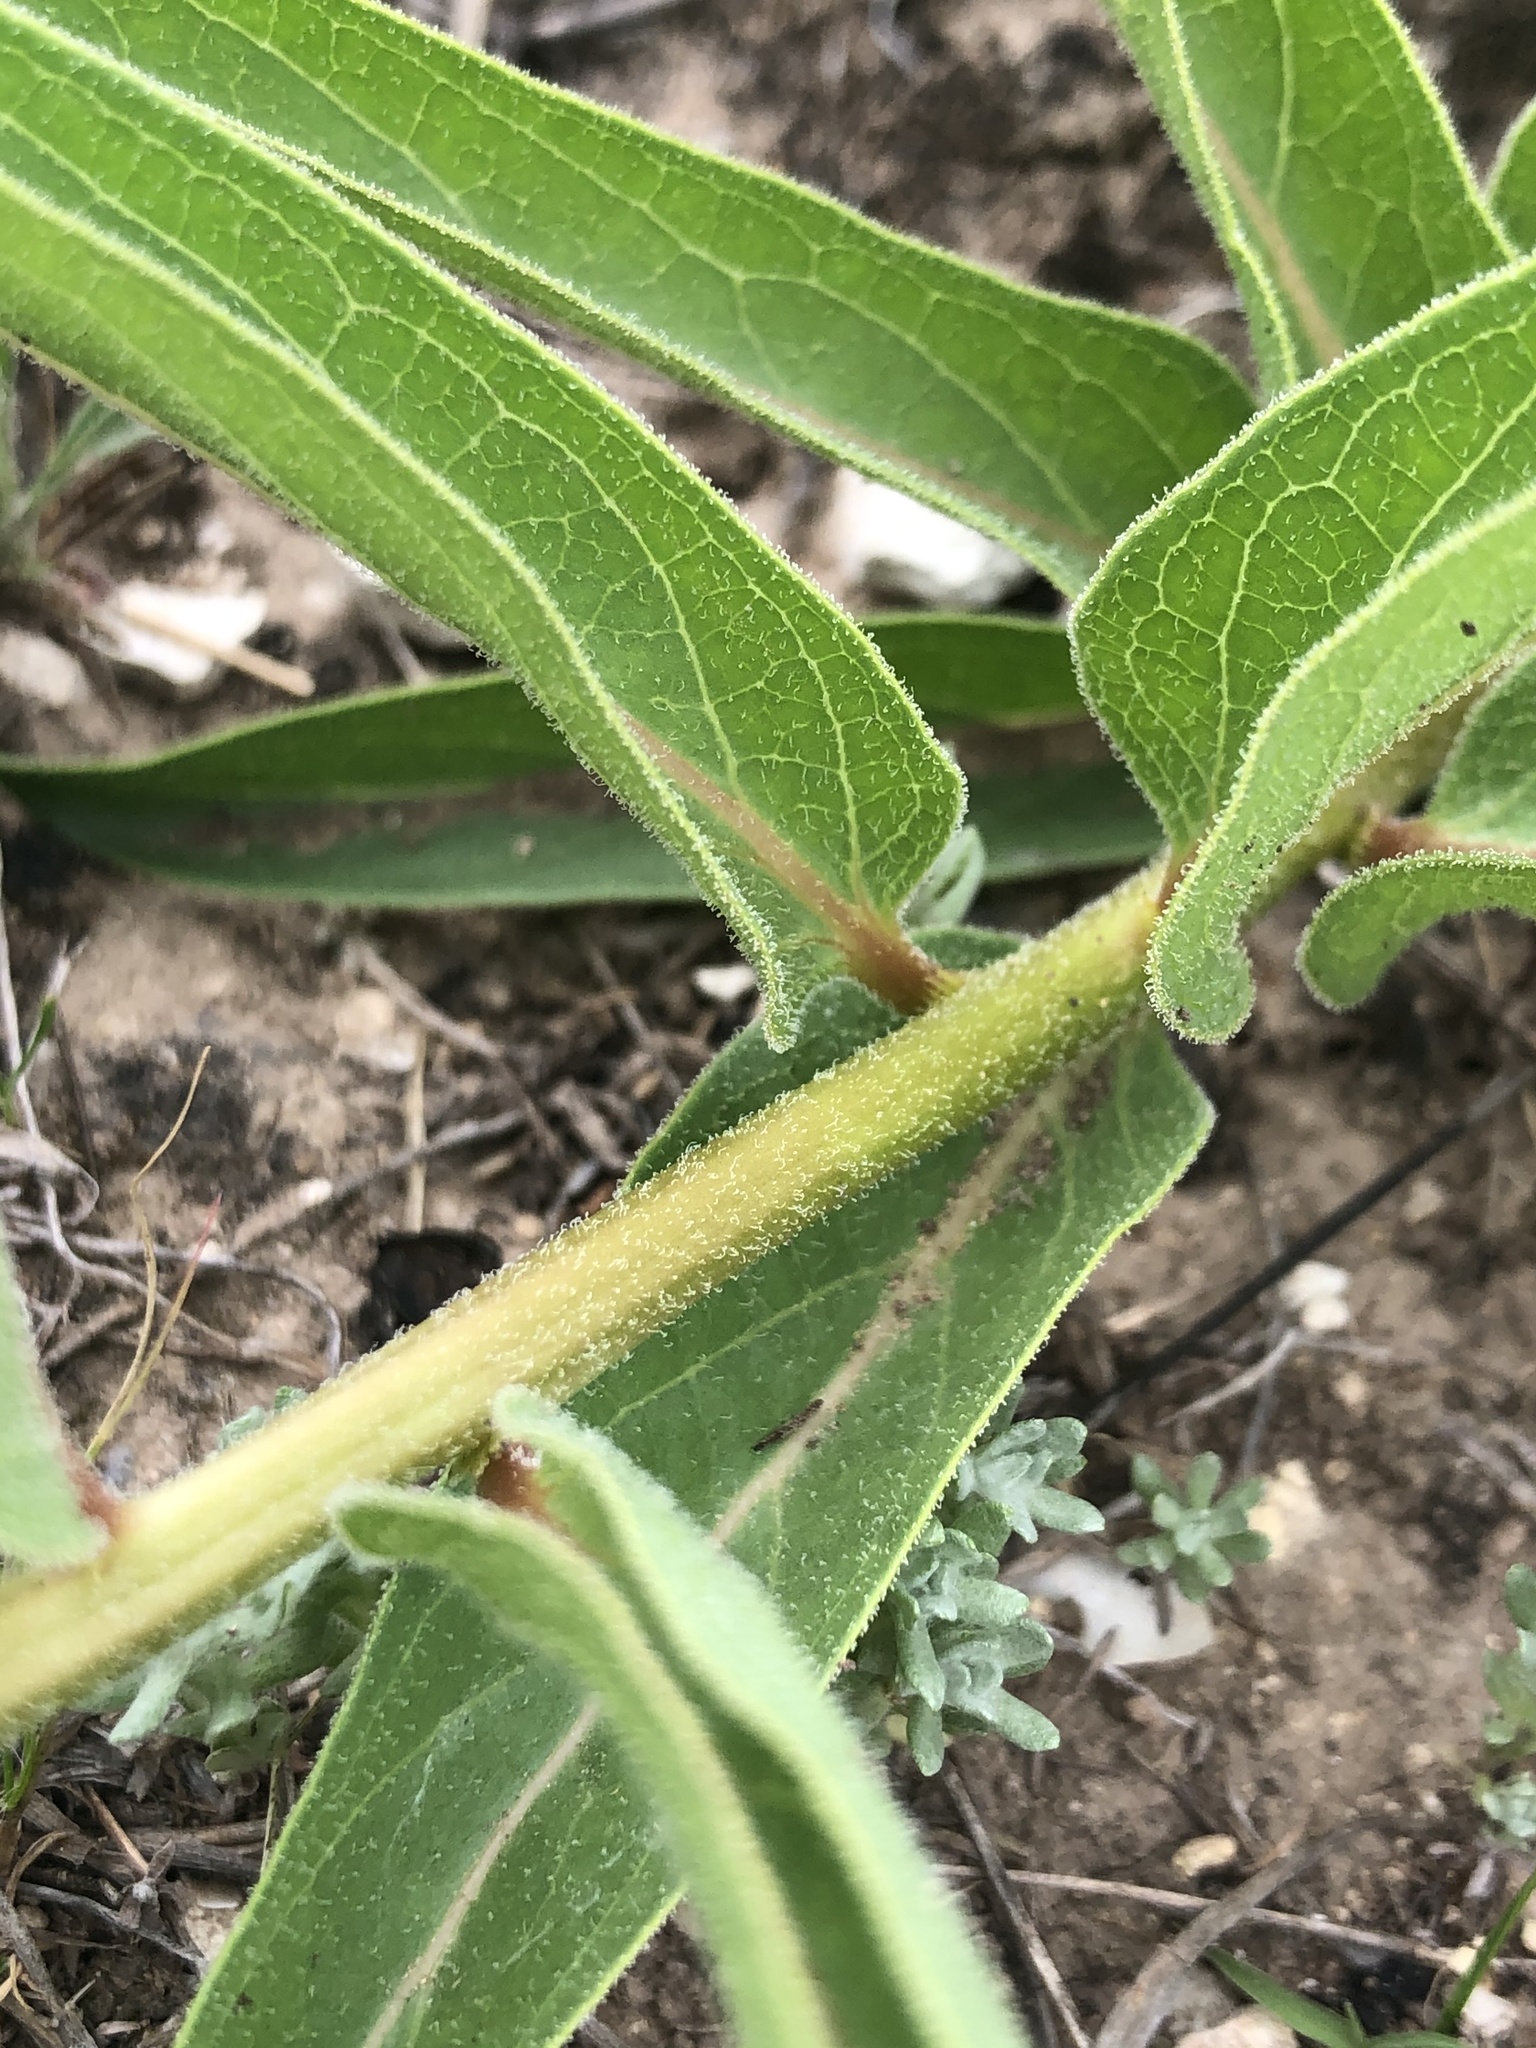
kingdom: Plantae
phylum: Tracheophyta
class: Magnoliopsida
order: Gentianales
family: Apocynaceae
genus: Asclepias
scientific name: Asclepias asperula
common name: Antelope horns
